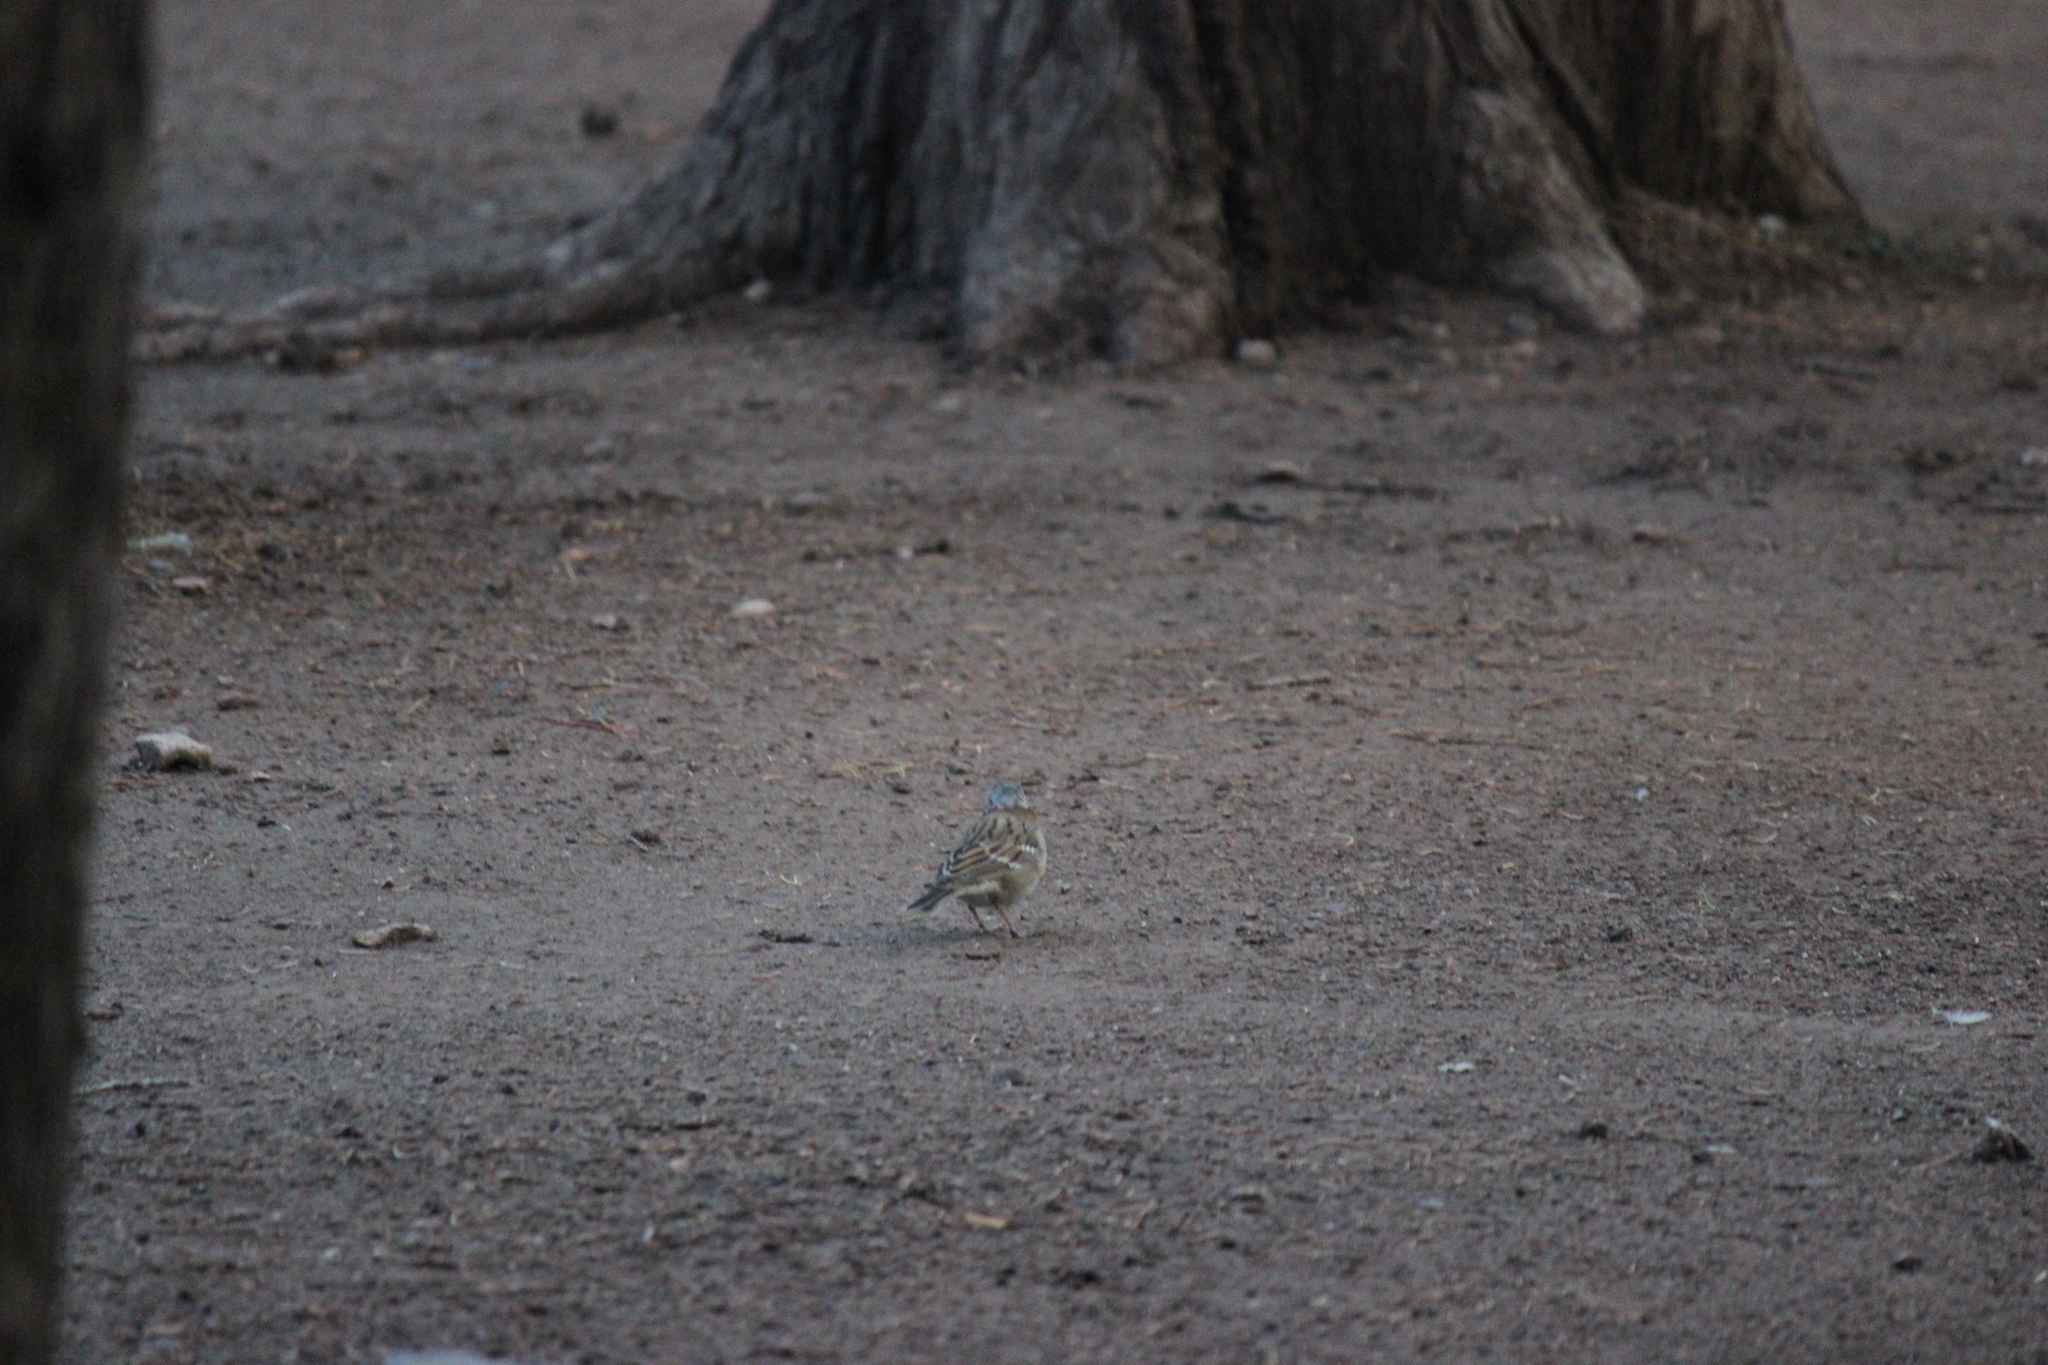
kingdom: Animalia
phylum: Chordata
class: Aves
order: Passeriformes
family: Passerellidae
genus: Zonotrichia
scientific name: Zonotrichia capensis
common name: Rufous-collared sparrow
